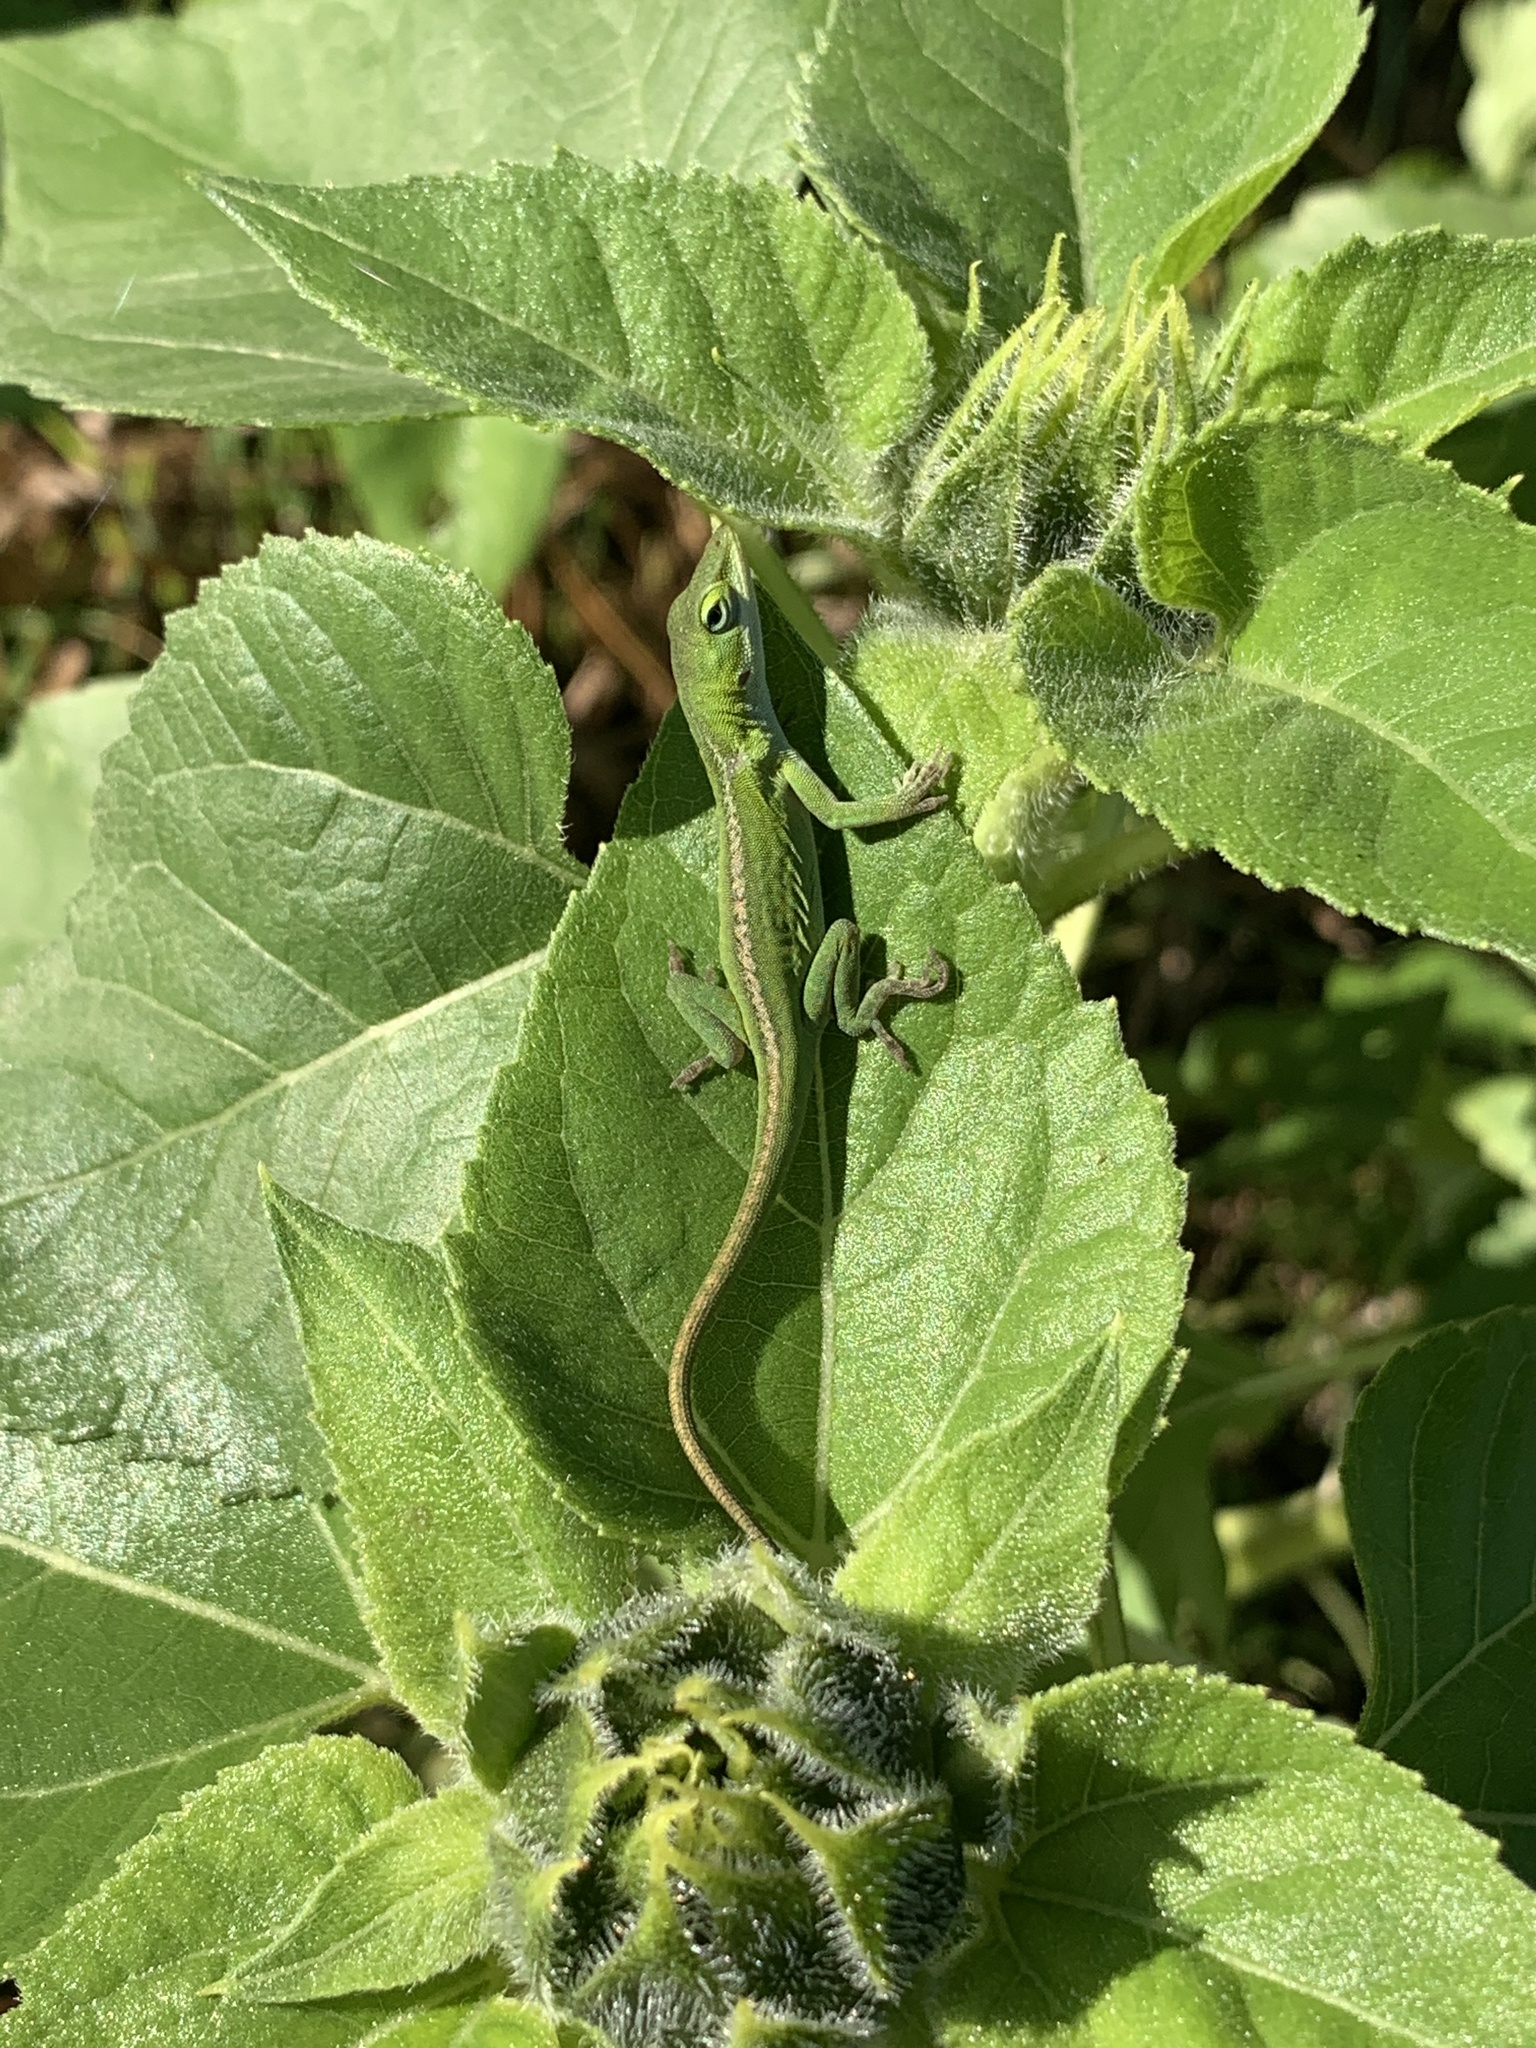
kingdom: Animalia
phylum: Chordata
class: Squamata
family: Dactyloidae
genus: Anolis
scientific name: Anolis carolinensis
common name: Green anole
